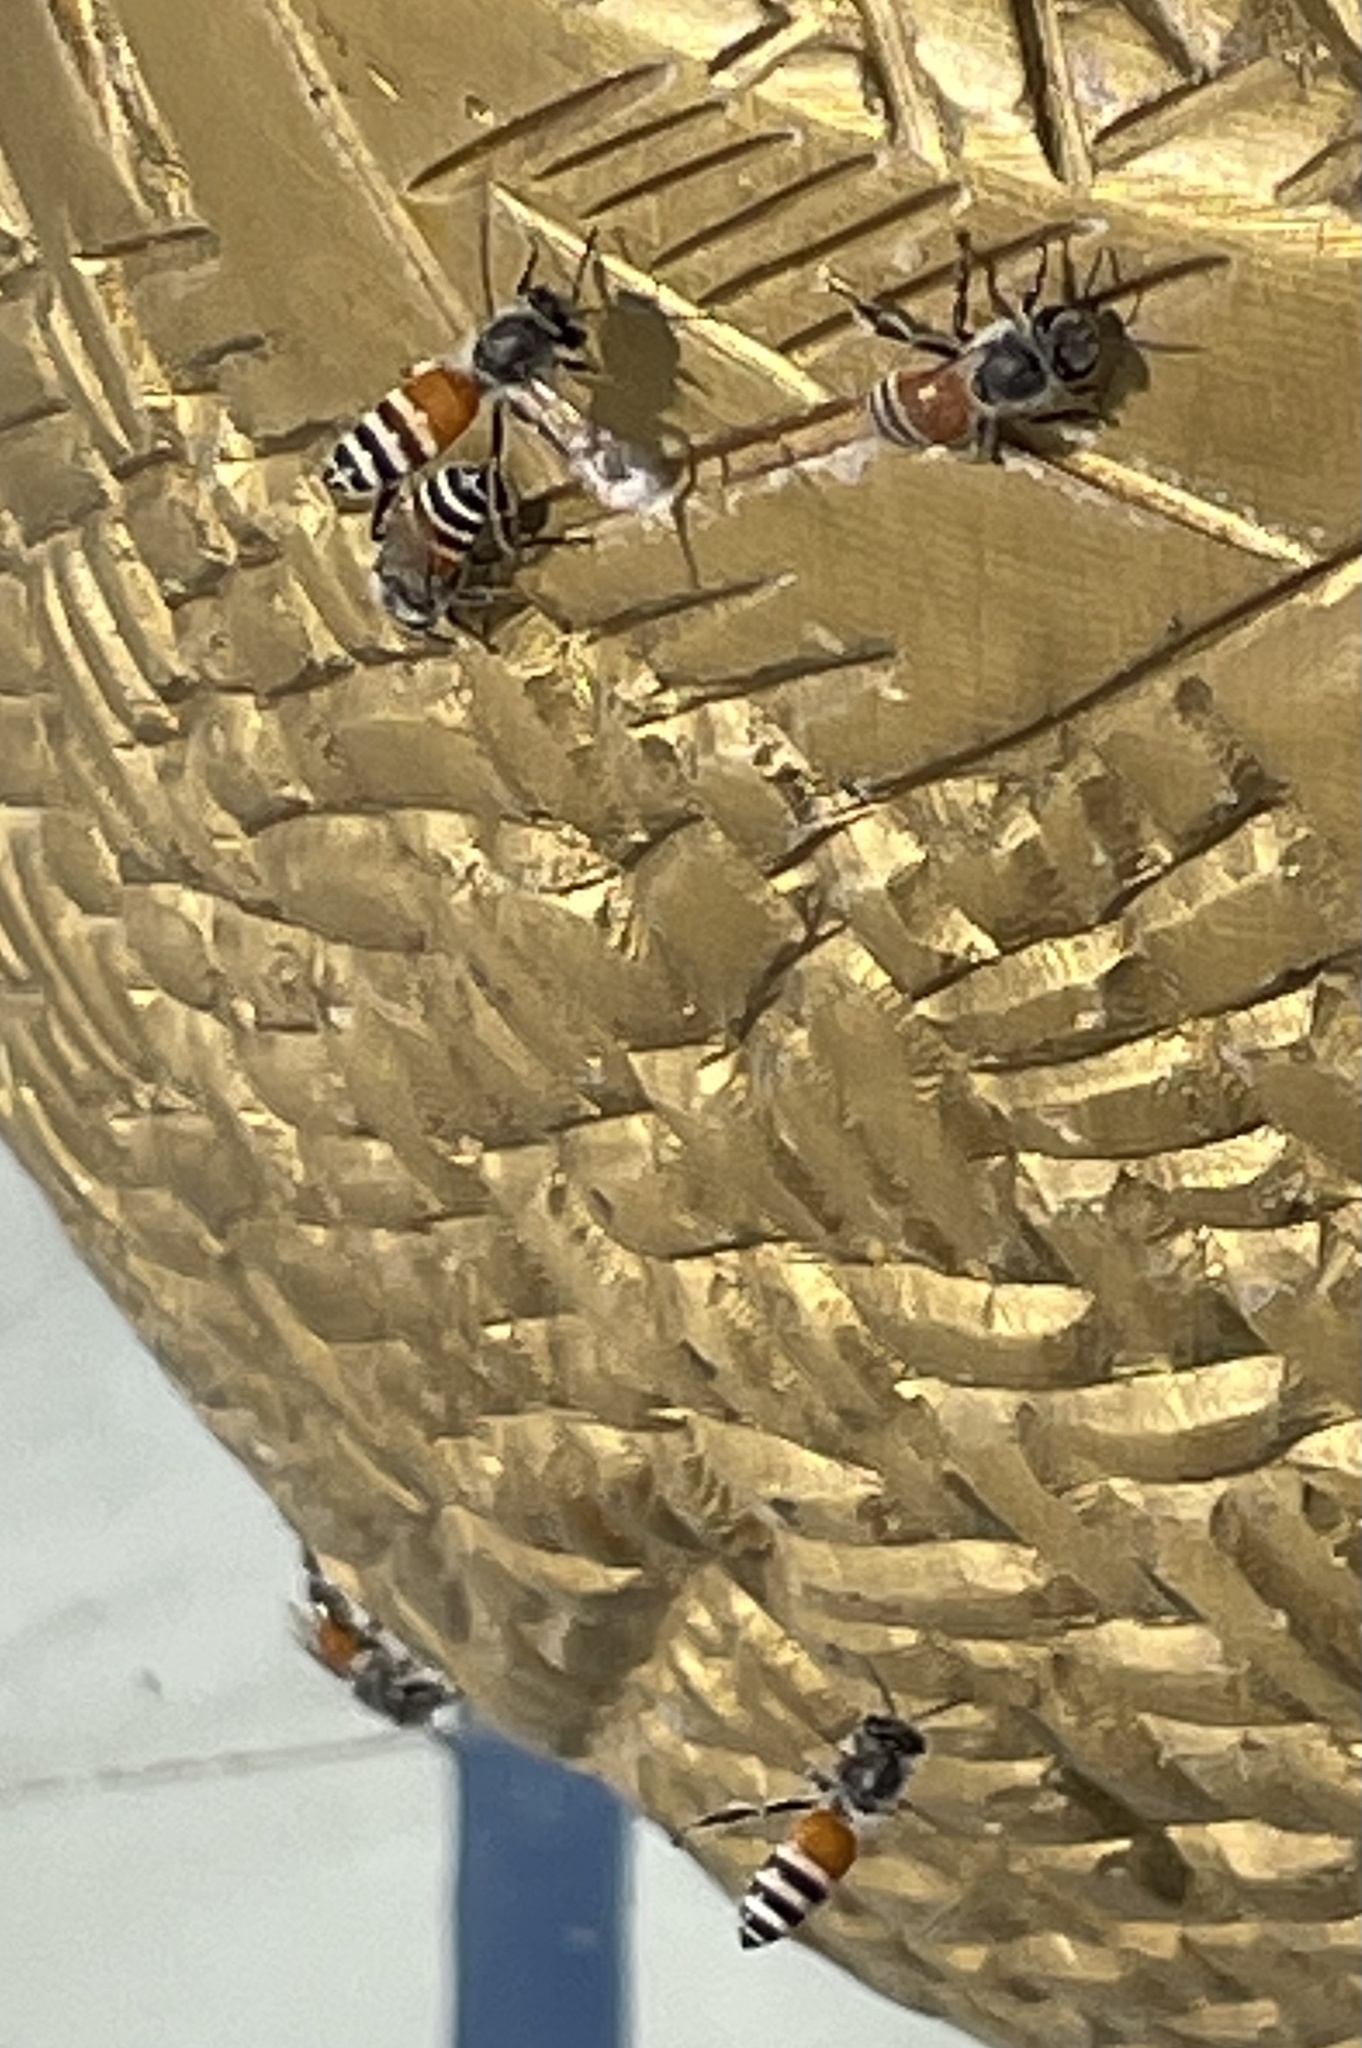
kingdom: Animalia
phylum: Arthropoda
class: Insecta
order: Hymenoptera
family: Apidae
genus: Apis
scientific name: Apis florea
